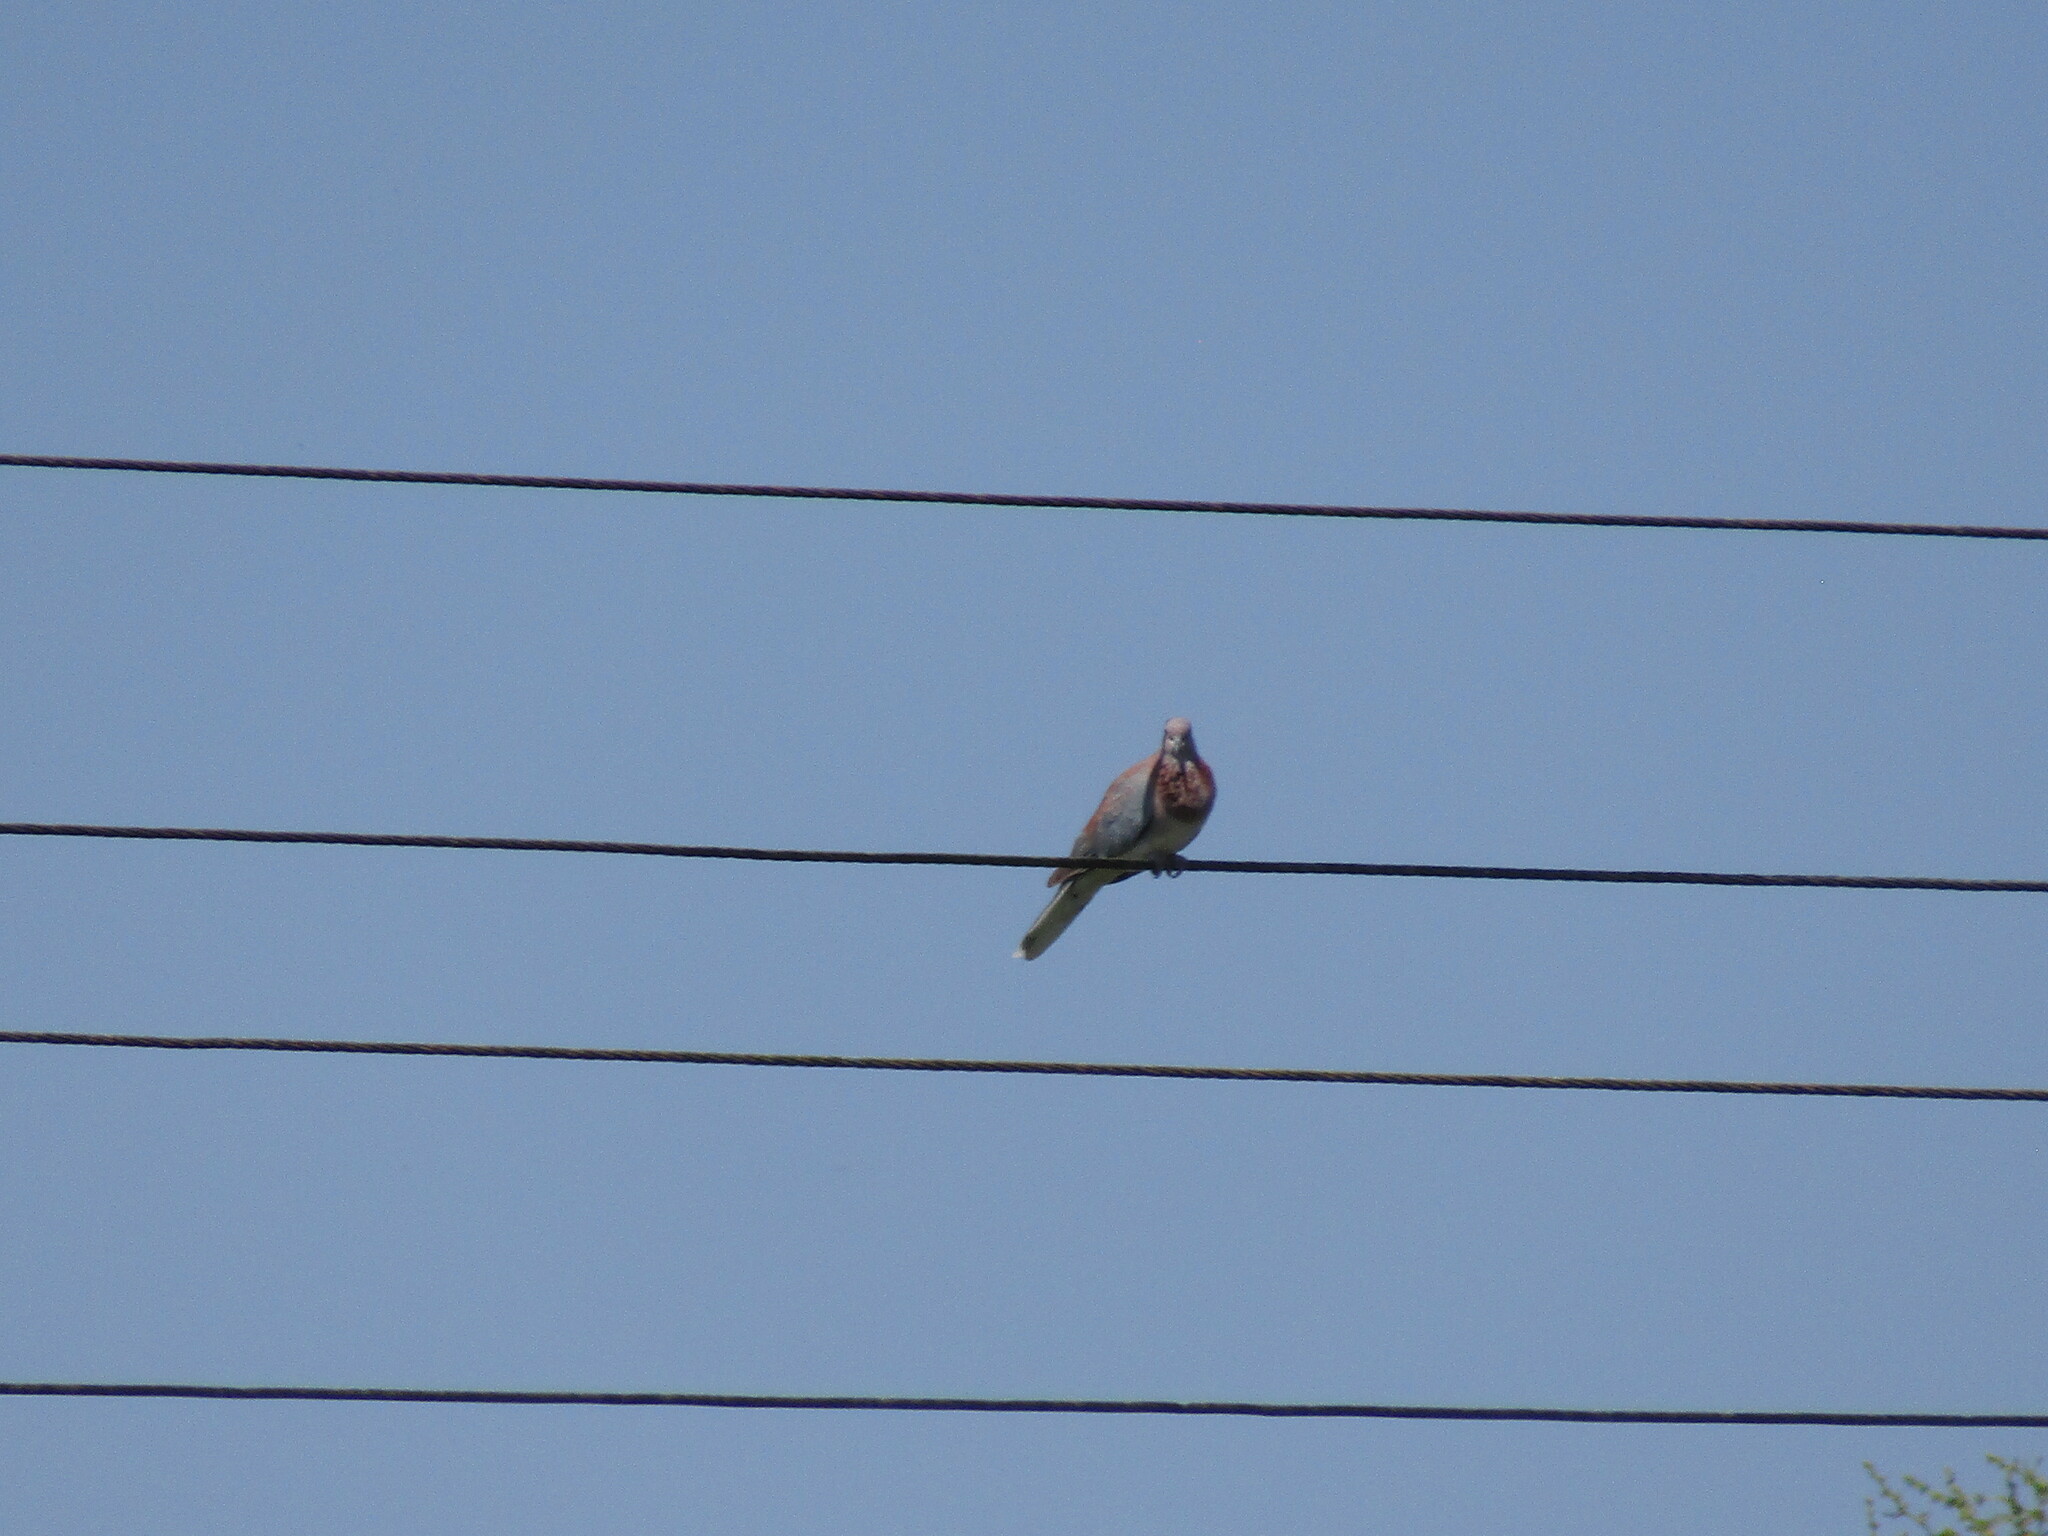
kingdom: Animalia
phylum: Chordata
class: Aves
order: Columbiformes
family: Columbidae
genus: Spilopelia
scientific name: Spilopelia senegalensis
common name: Laughing dove
